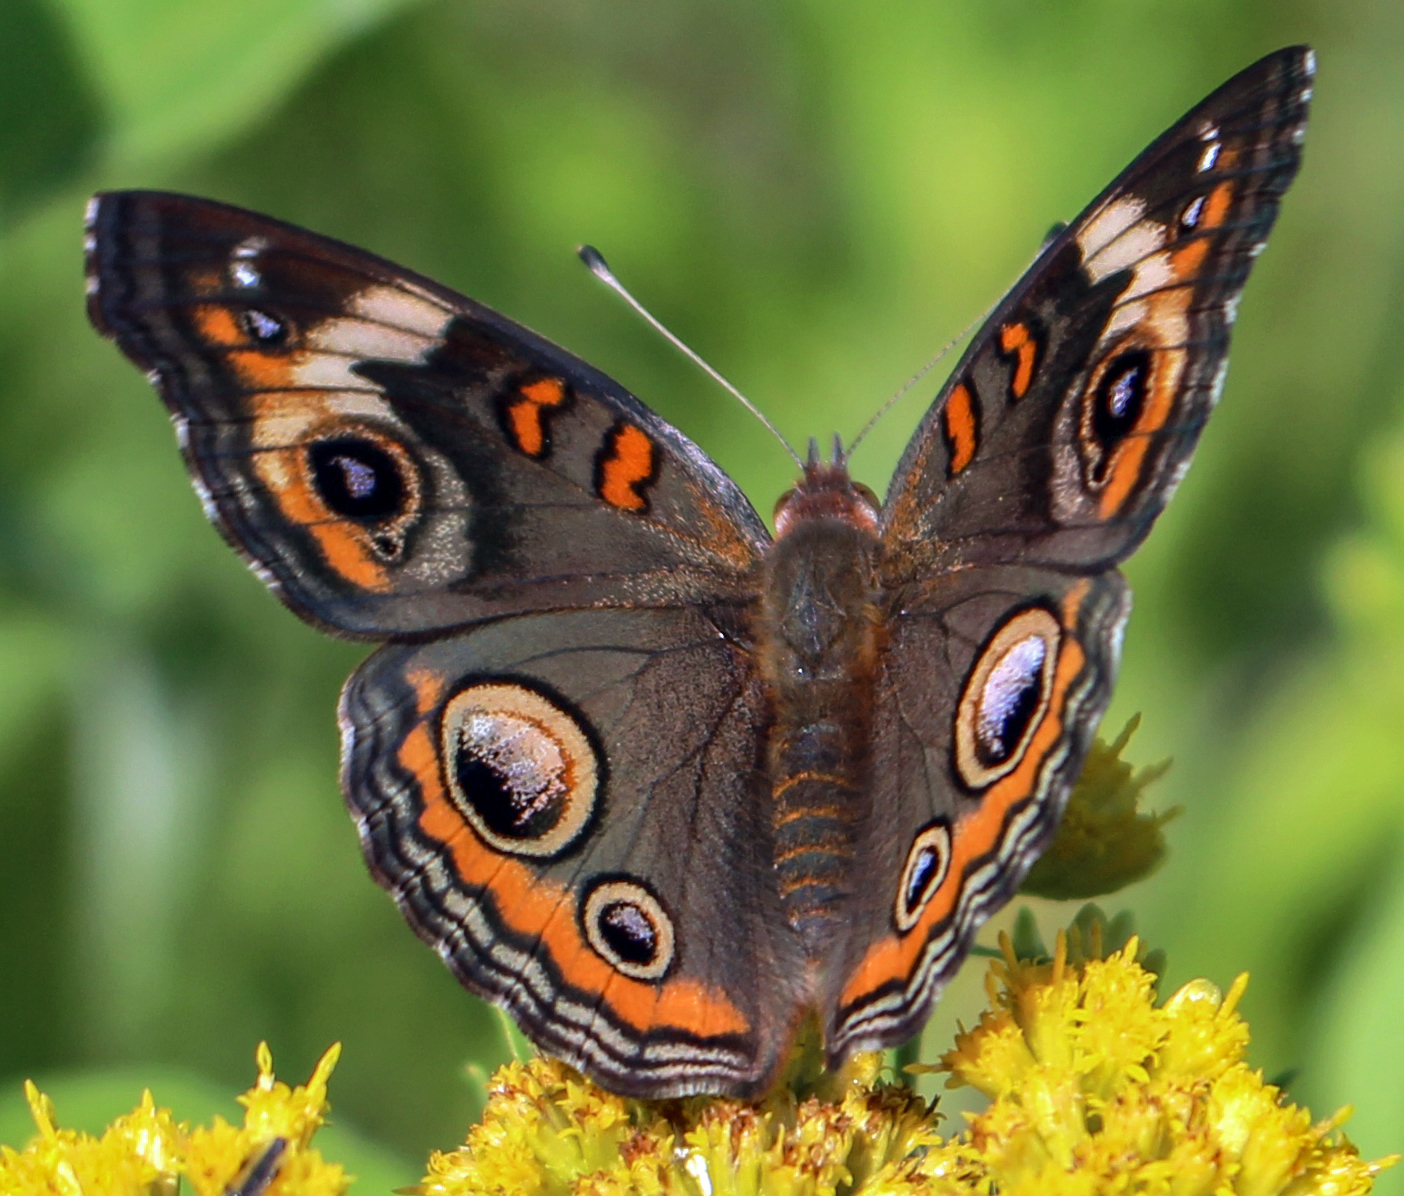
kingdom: Animalia
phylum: Arthropoda
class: Insecta
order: Lepidoptera
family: Nymphalidae
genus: Junonia
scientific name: Junonia coenia
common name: Common buckeye
